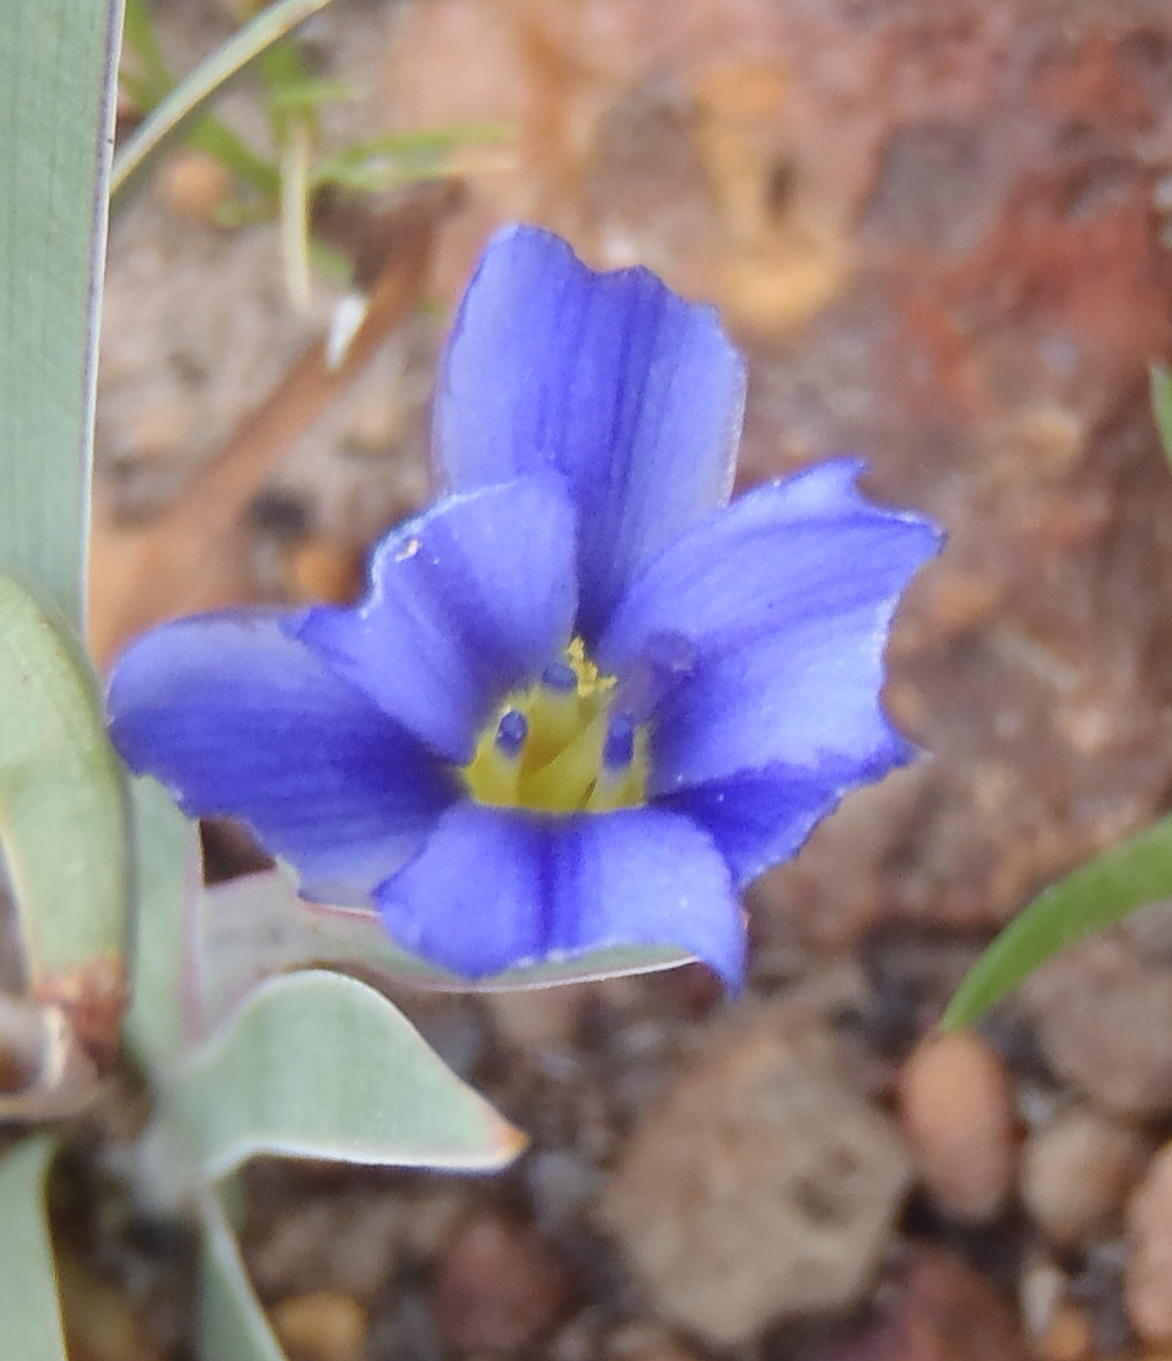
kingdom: Plantae
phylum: Tracheophyta
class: Liliopsida
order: Asparagales
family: Iridaceae
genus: Aristea
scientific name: Aristea nana
